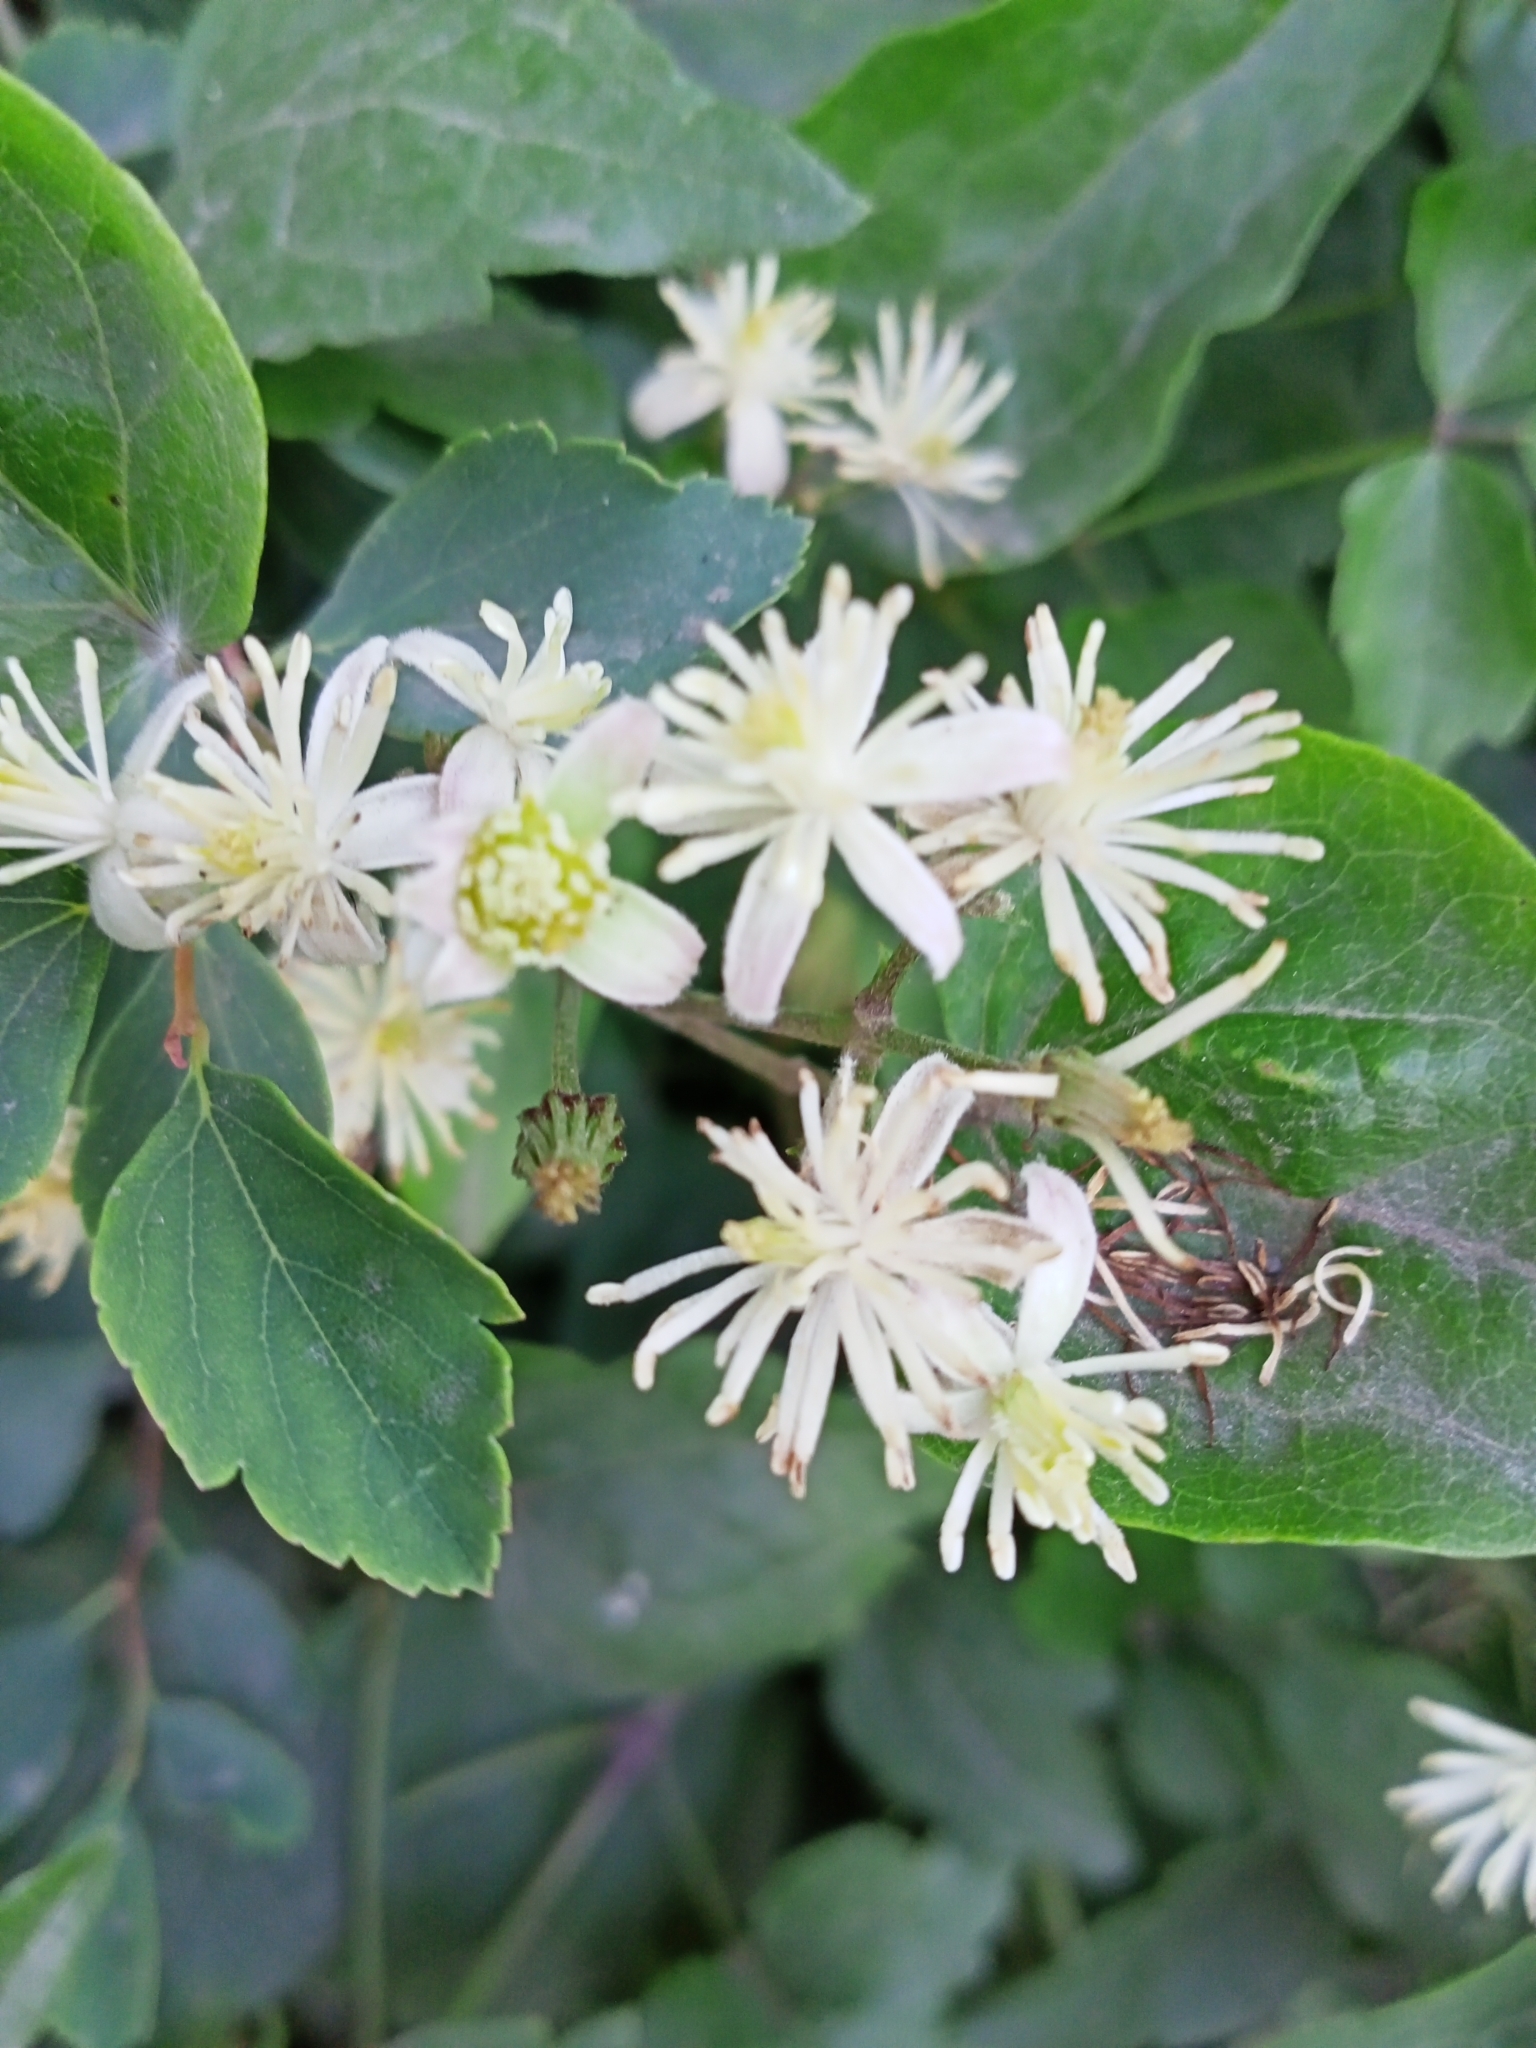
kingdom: Plantae
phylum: Tracheophyta
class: Magnoliopsida
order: Ranunculales
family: Ranunculaceae
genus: Clematis
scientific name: Clematis vitalba
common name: Evergreen clematis
